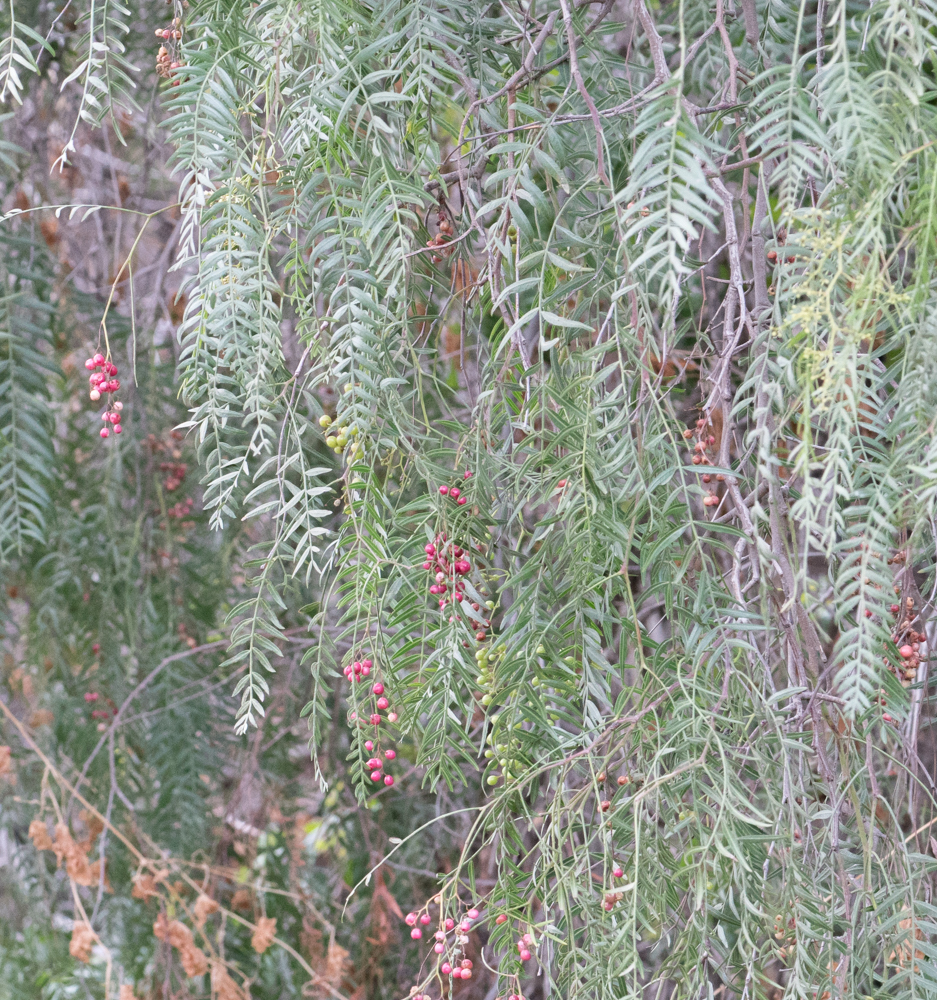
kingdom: Plantae
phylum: Tracheophyta
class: Magnoliopsida
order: Sapindales
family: Anacardiaceae
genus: Schinus
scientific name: Schinus molle
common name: Peruvian peppertree
